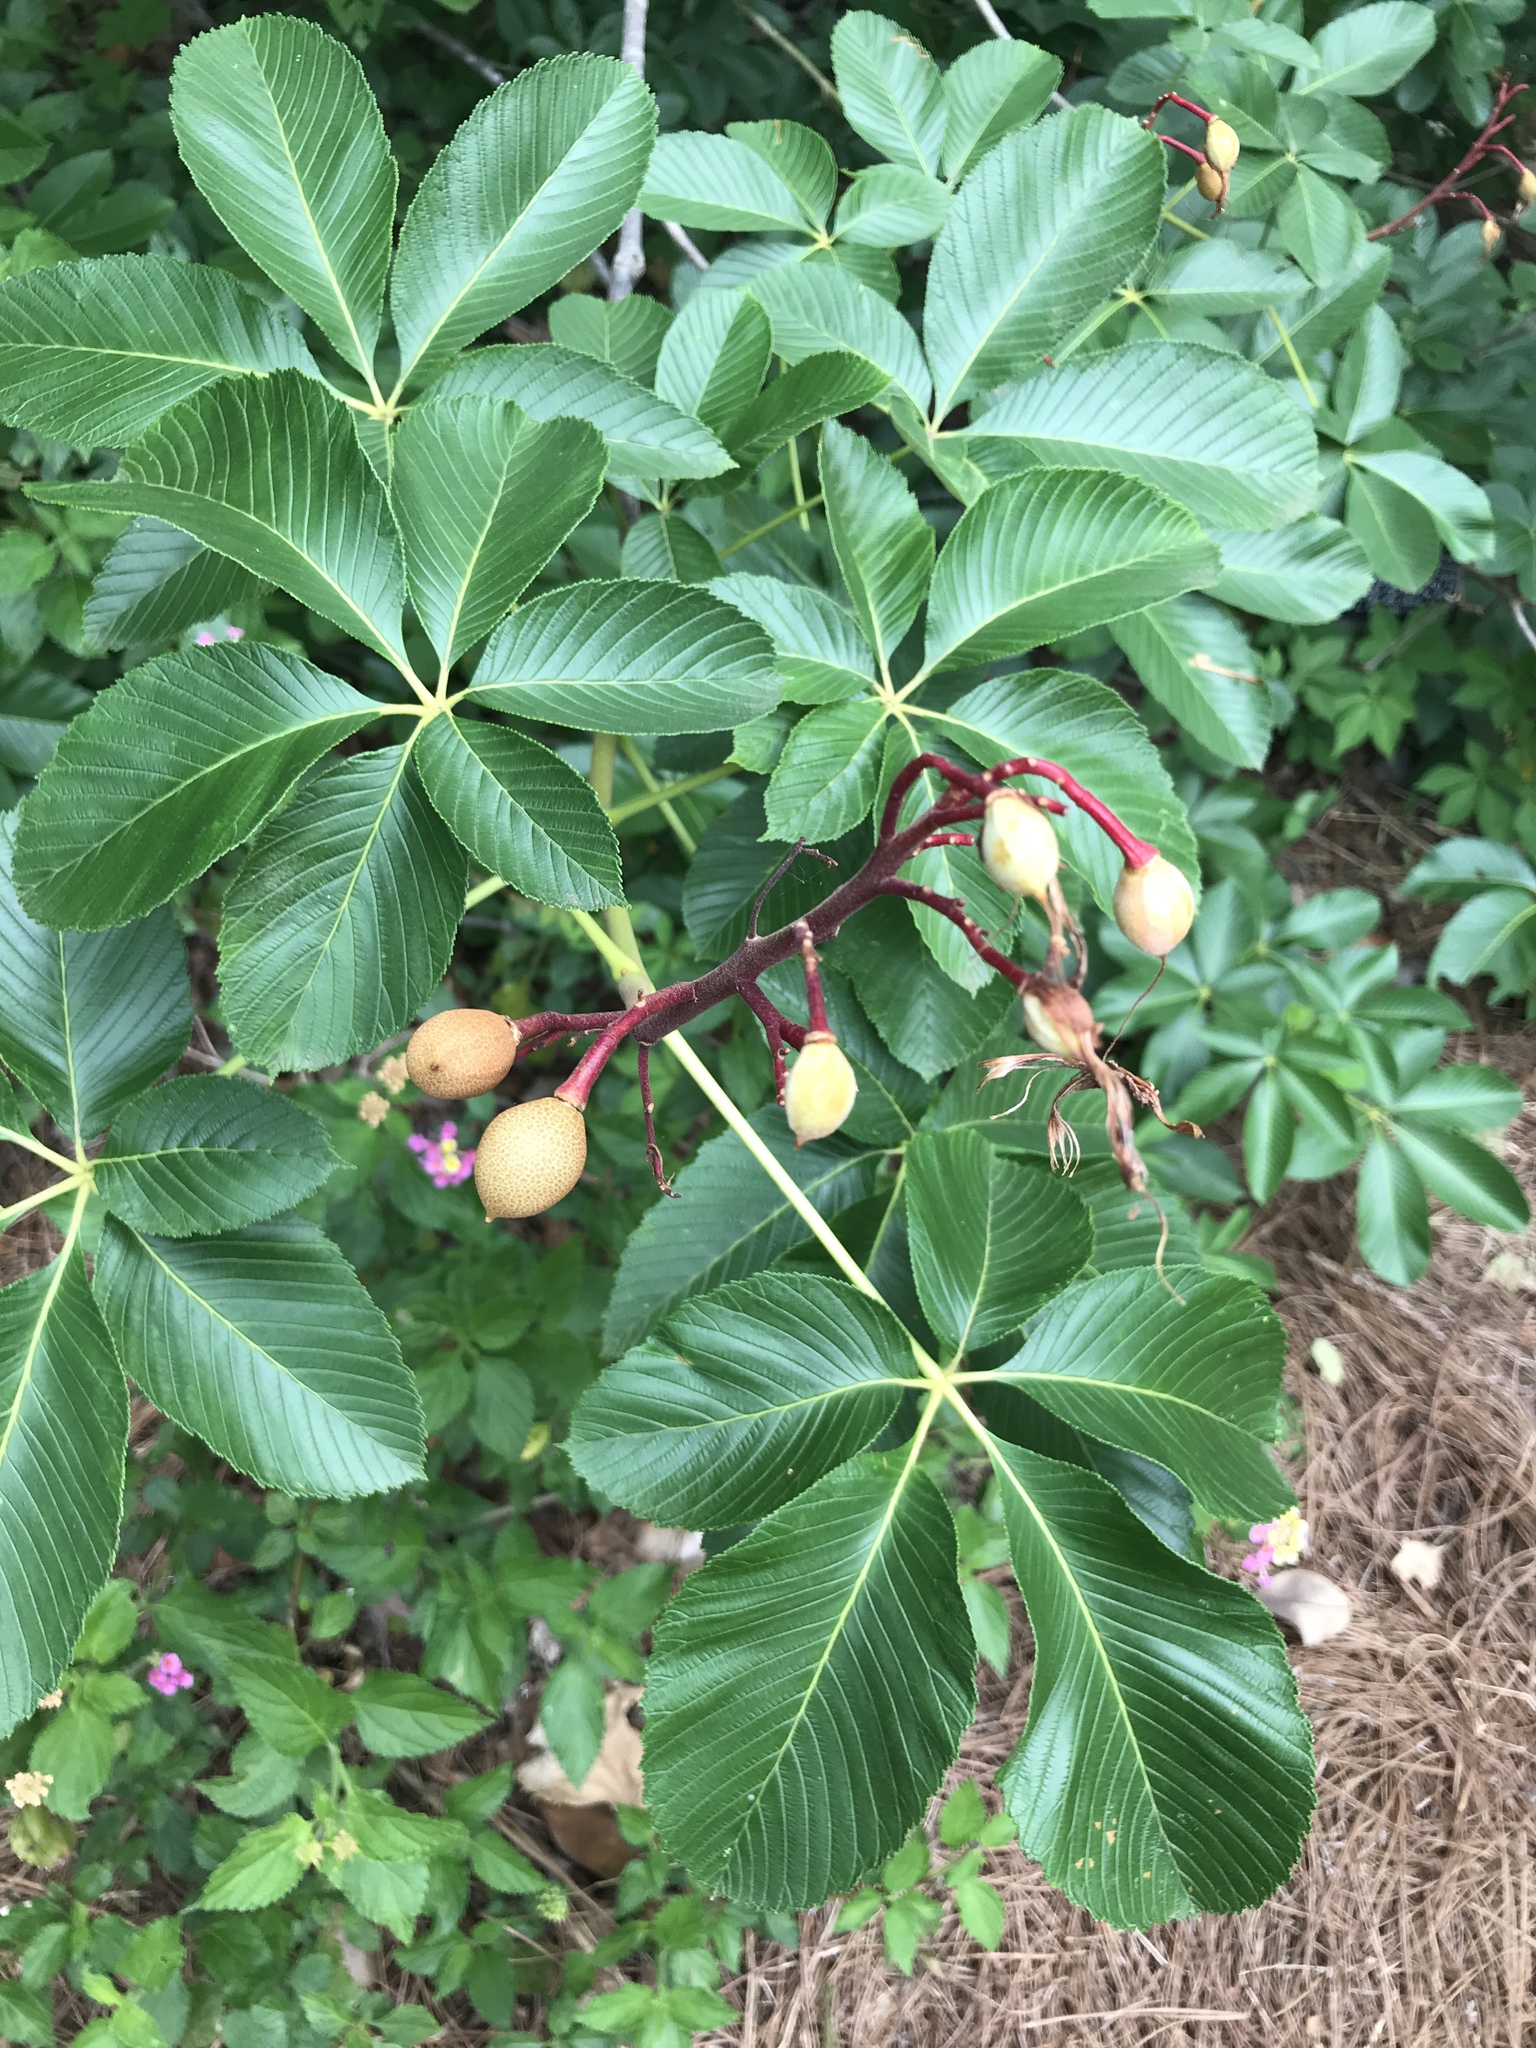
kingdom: Plantae
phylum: Tracheophyta
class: Magnoliopsida
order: Sapindales
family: Sapindaceae
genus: Aesculus
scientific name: Aesculus pavia
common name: Red buckeye
